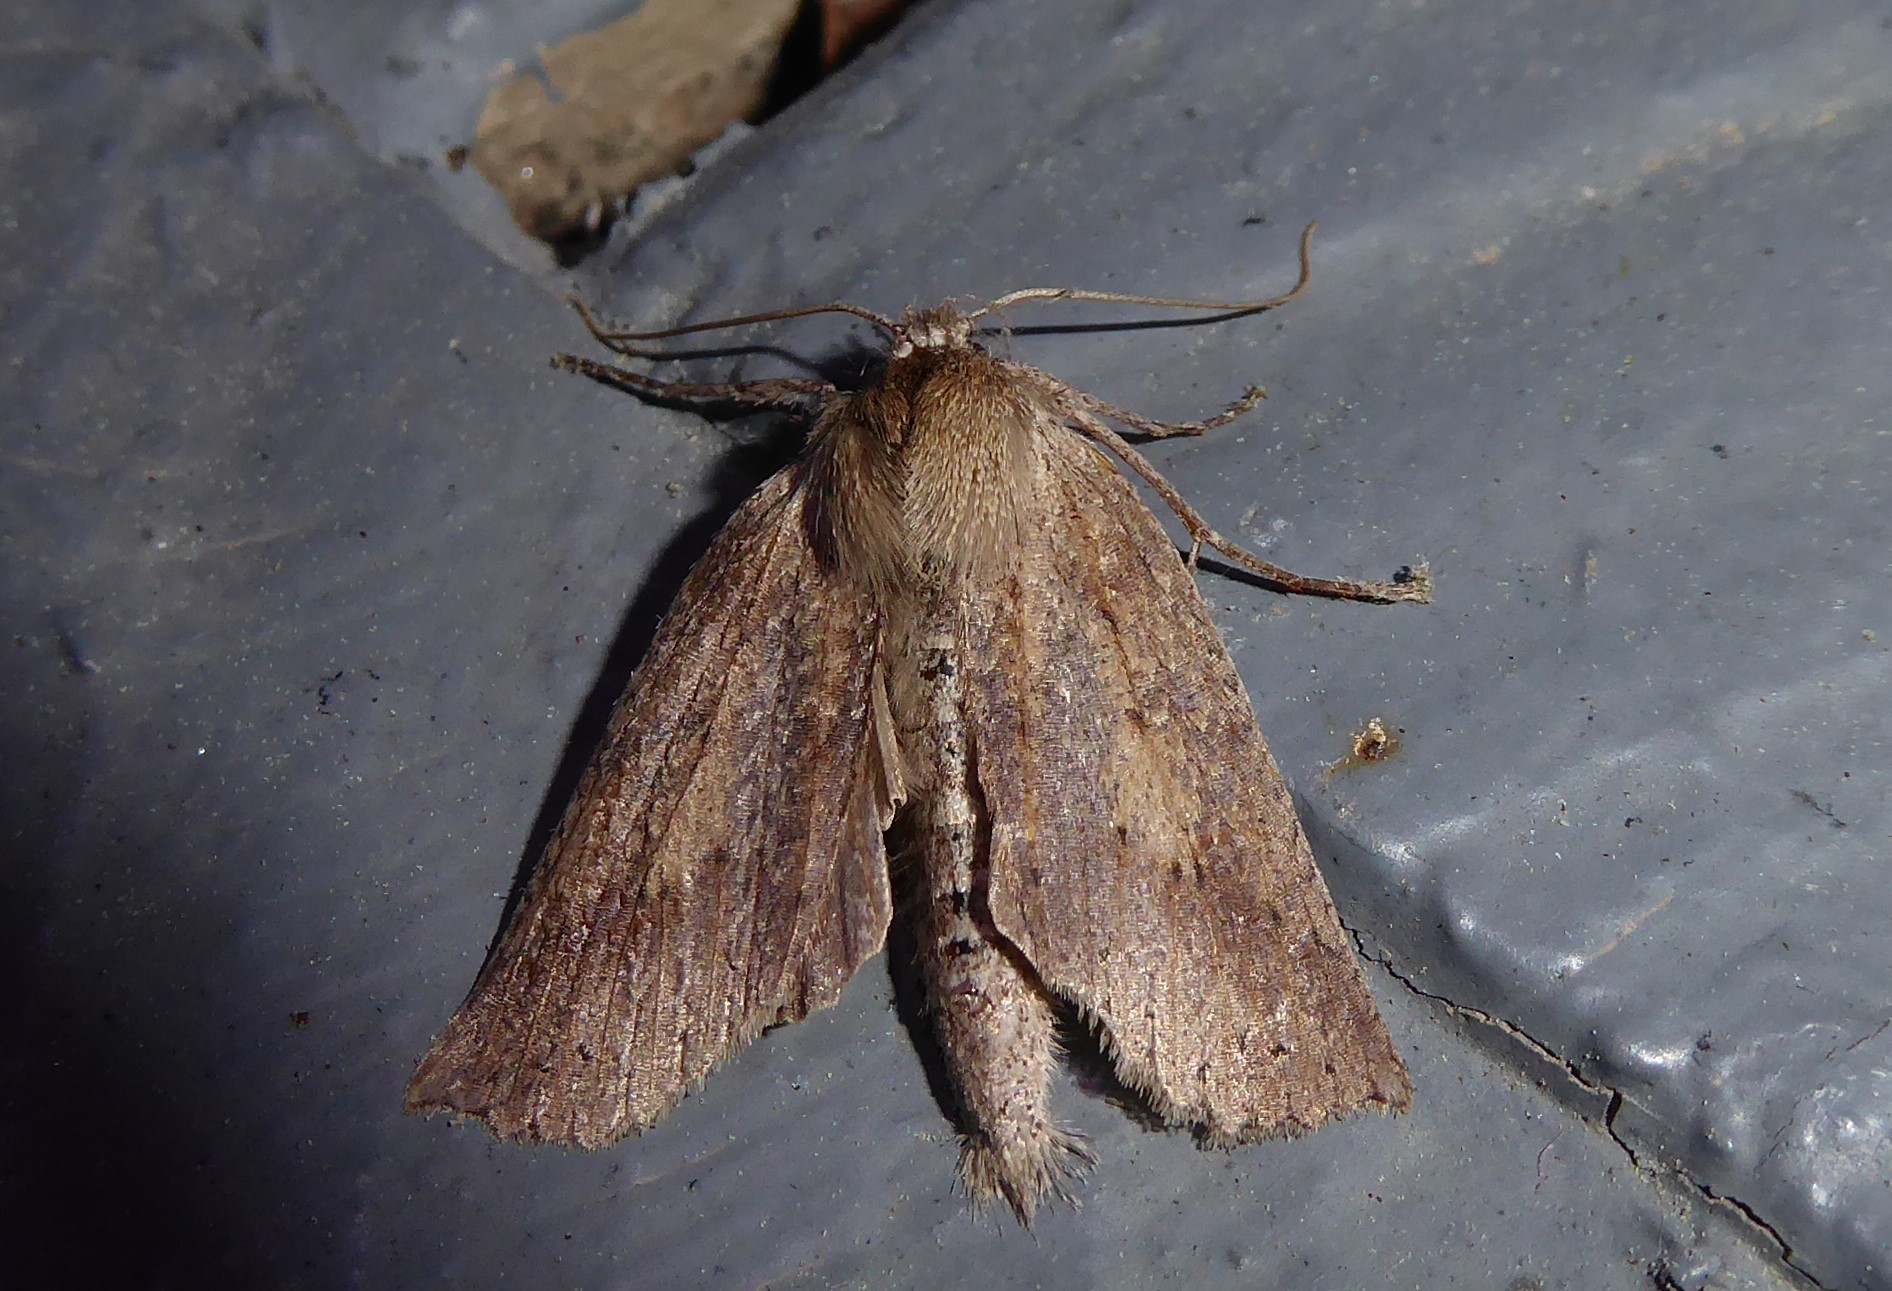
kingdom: Animalia
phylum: Arthropoda
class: Insecta
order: Lepidoptera
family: Geometridae
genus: Declana
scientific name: Declana leptomera
